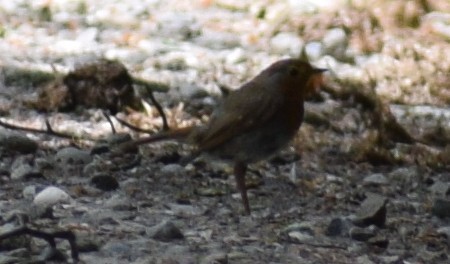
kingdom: Animalia
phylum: Chordata
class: Aves
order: Passeriformes
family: Muscicapidae
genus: Erithacus
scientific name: Erithacus rubecula
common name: European robin
